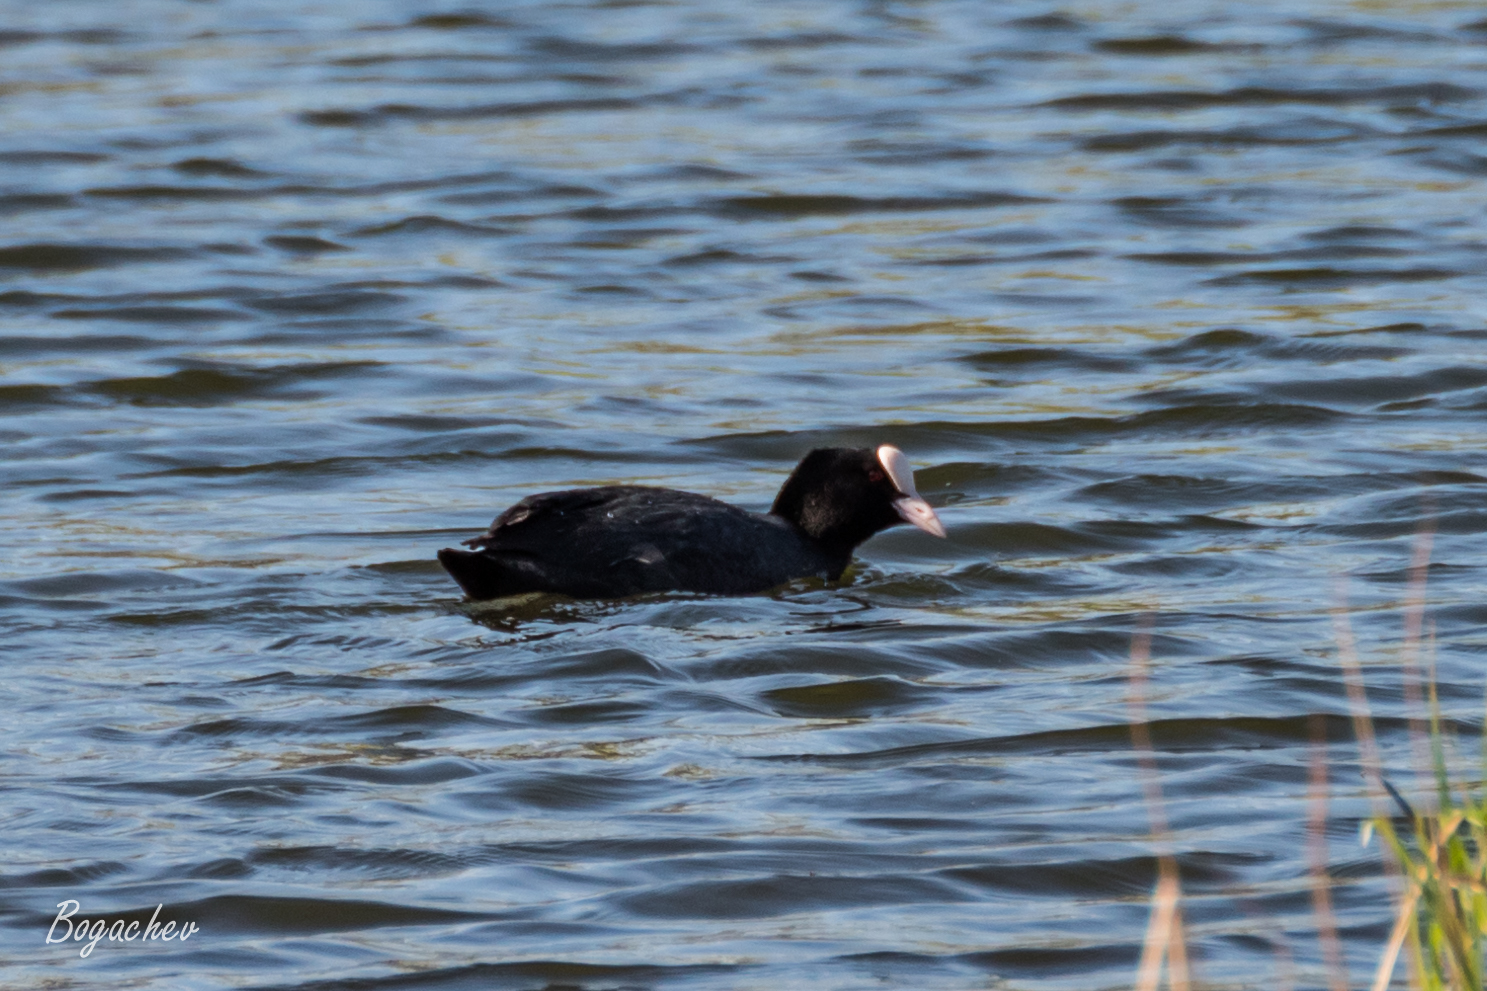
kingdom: Animalia
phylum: Chordata
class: Aves
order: Gruiformes
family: Rallidae
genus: Fulica
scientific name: Fulica atra
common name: Eurasian coot
